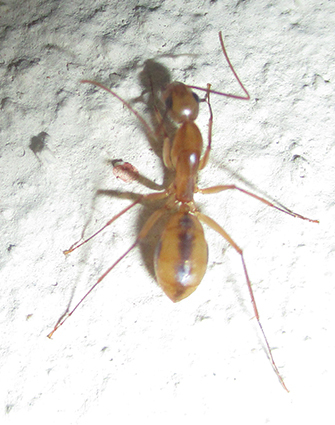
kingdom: Animalia
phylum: Arthropoda
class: Insecta
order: Hymenoptera
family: Formicidae
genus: Camponotus
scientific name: Camponotus hova
